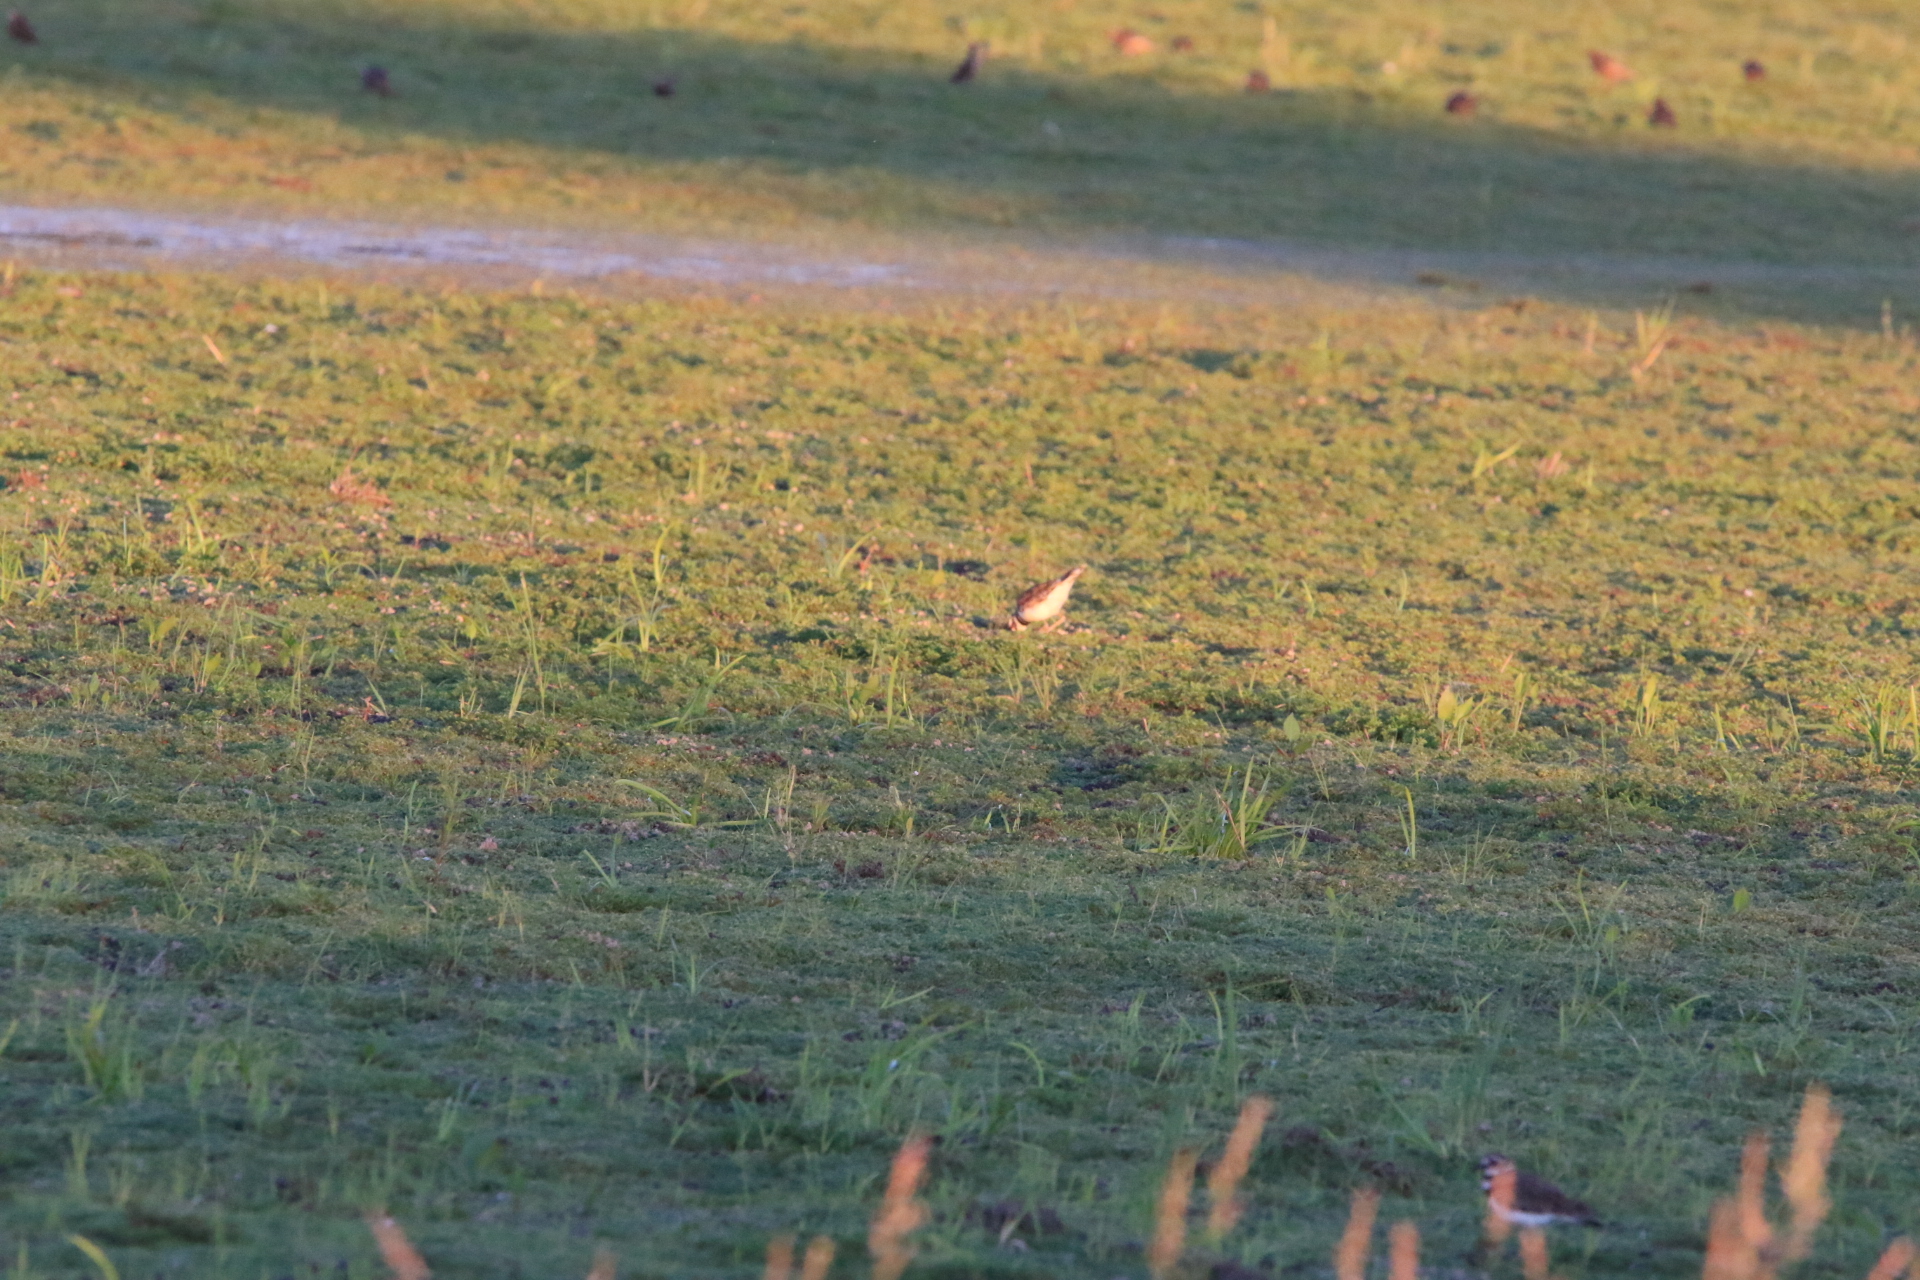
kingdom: Animalia
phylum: Chordata
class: Aves
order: Charadriiformes
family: Charadriidae
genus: Charadrius
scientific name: Charadrius vociferus
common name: Killdeer
